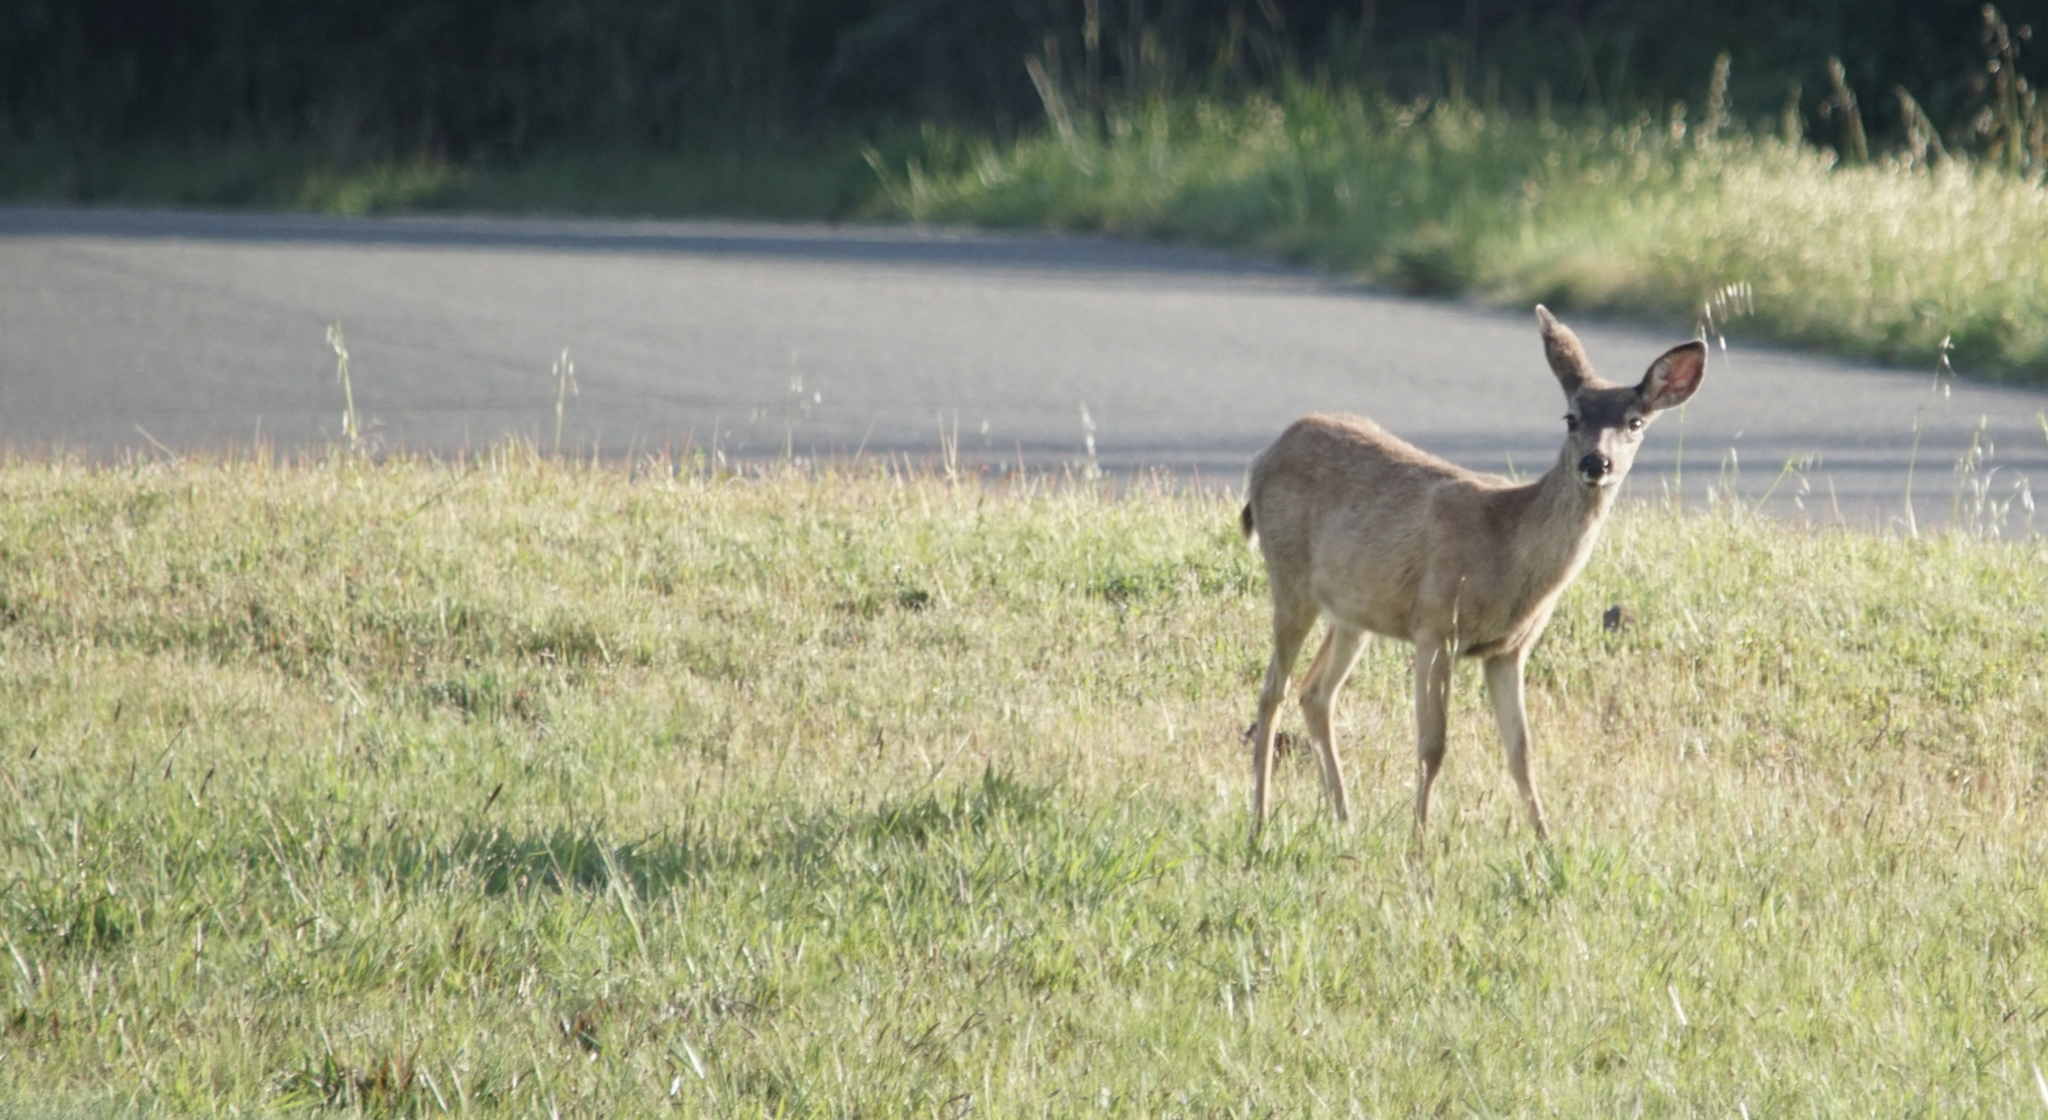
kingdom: Animalia
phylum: Chordata
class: Mammalia
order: Artiodactyla
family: Cervidae
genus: Odocoileus
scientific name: Odocoileus hemionus
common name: Mule deer
